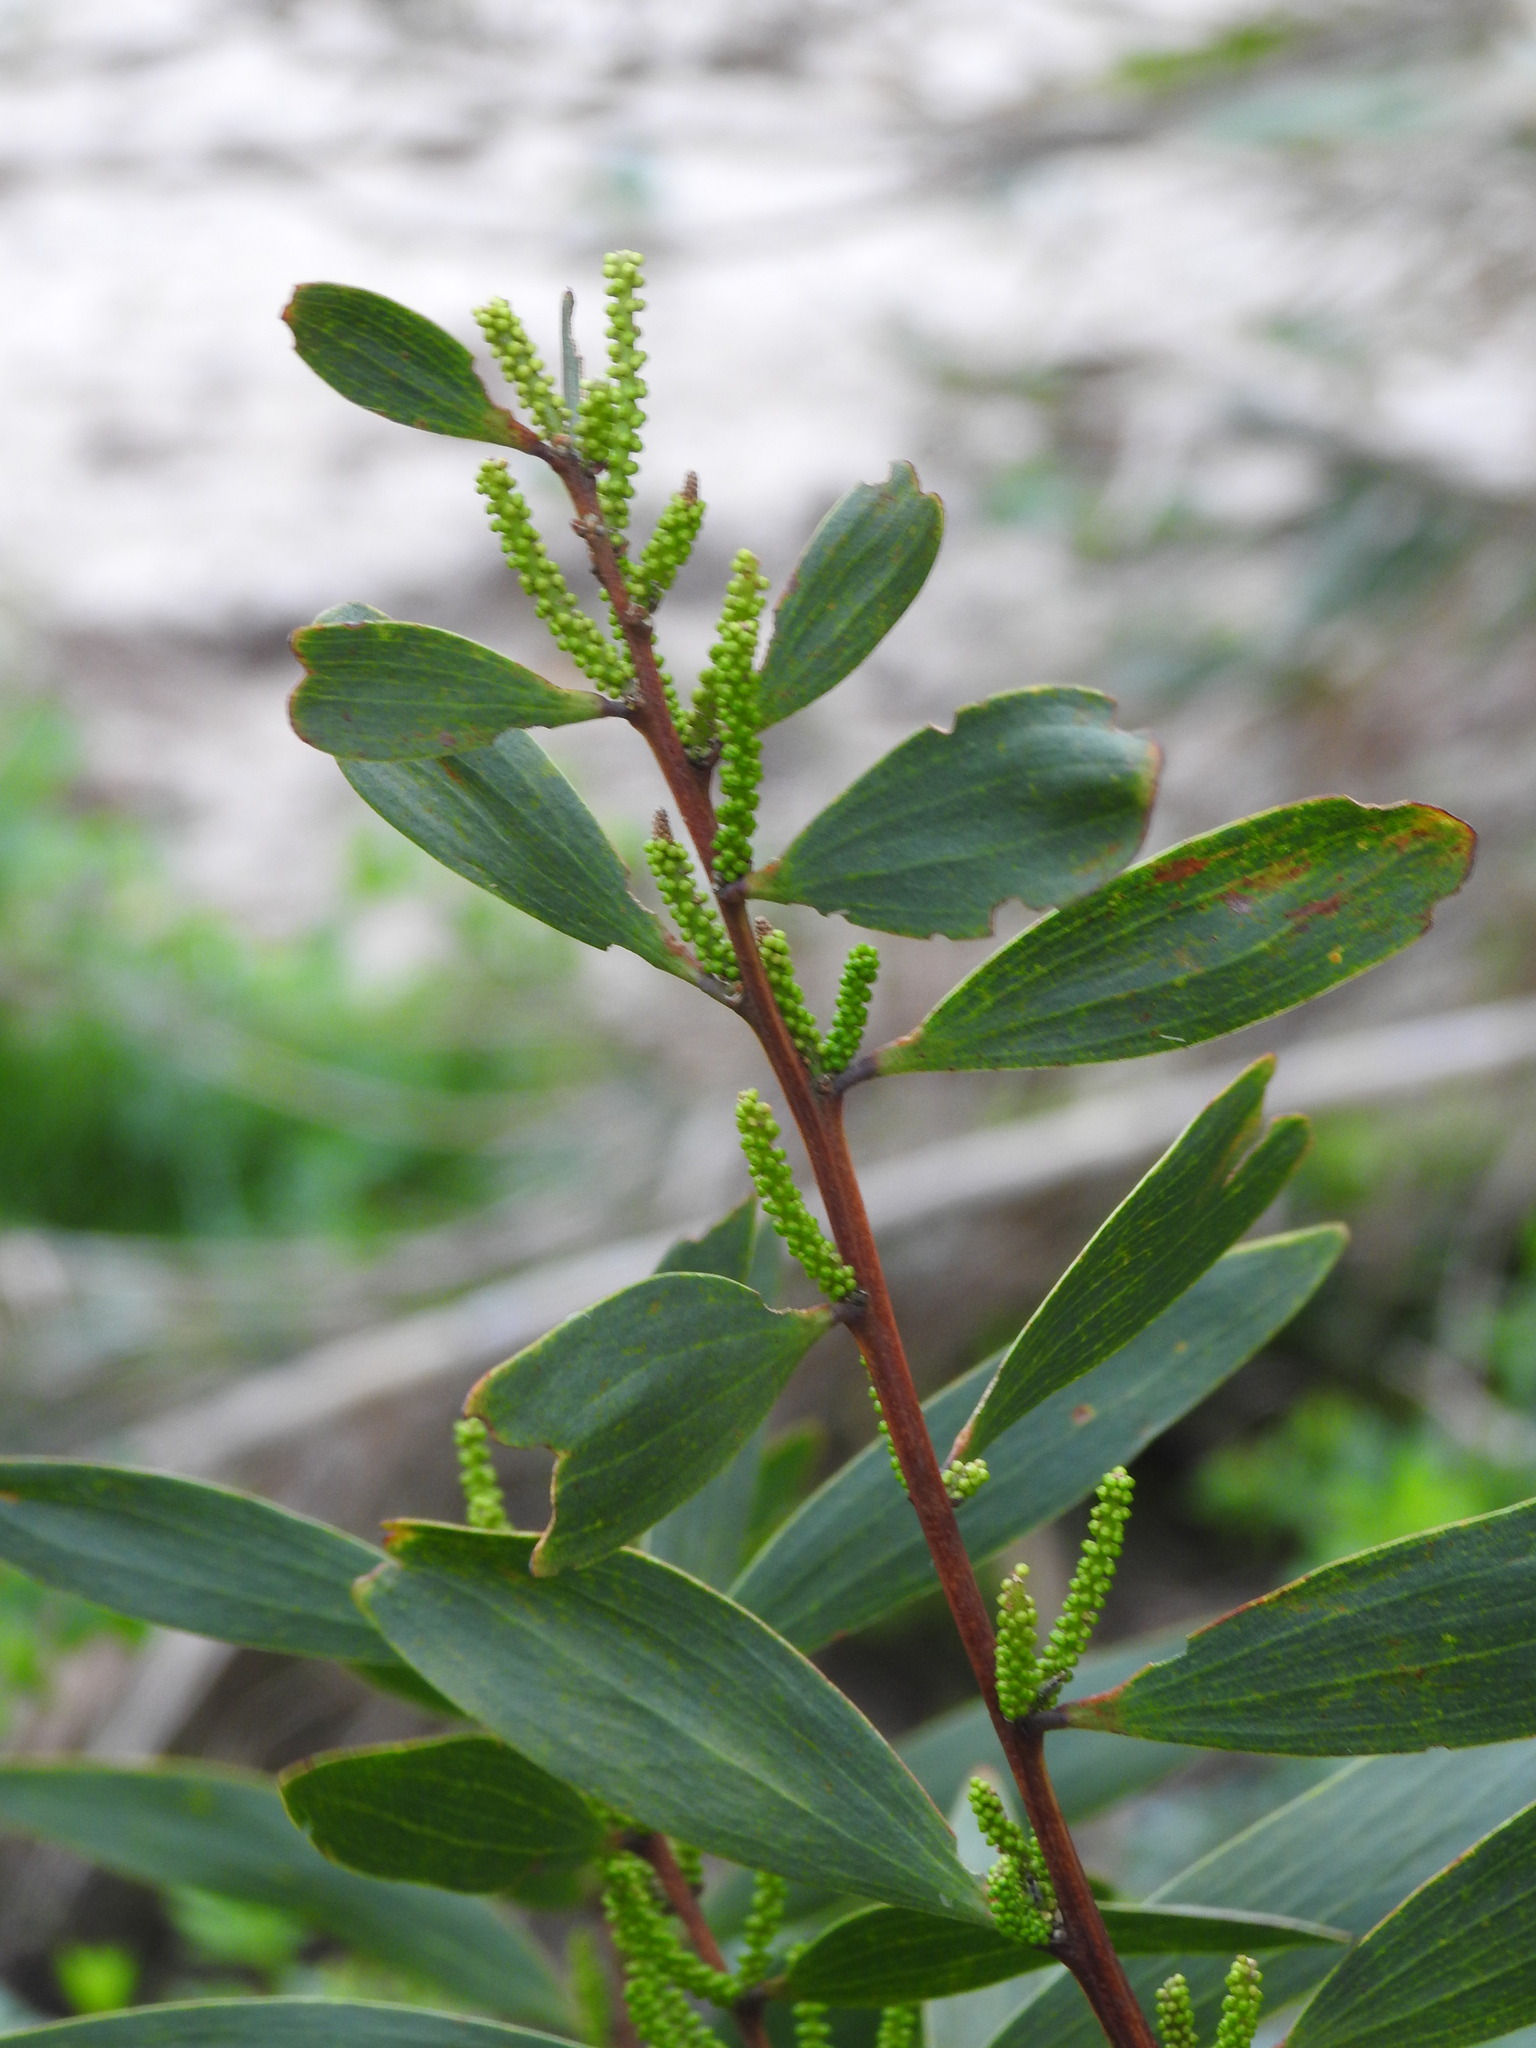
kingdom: Plantae
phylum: Tracheophyta
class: Magnoliopsida
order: Fabales
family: Fabaceae
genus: Acacia
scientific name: Acacia longifolia
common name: Sydney golden wattle
